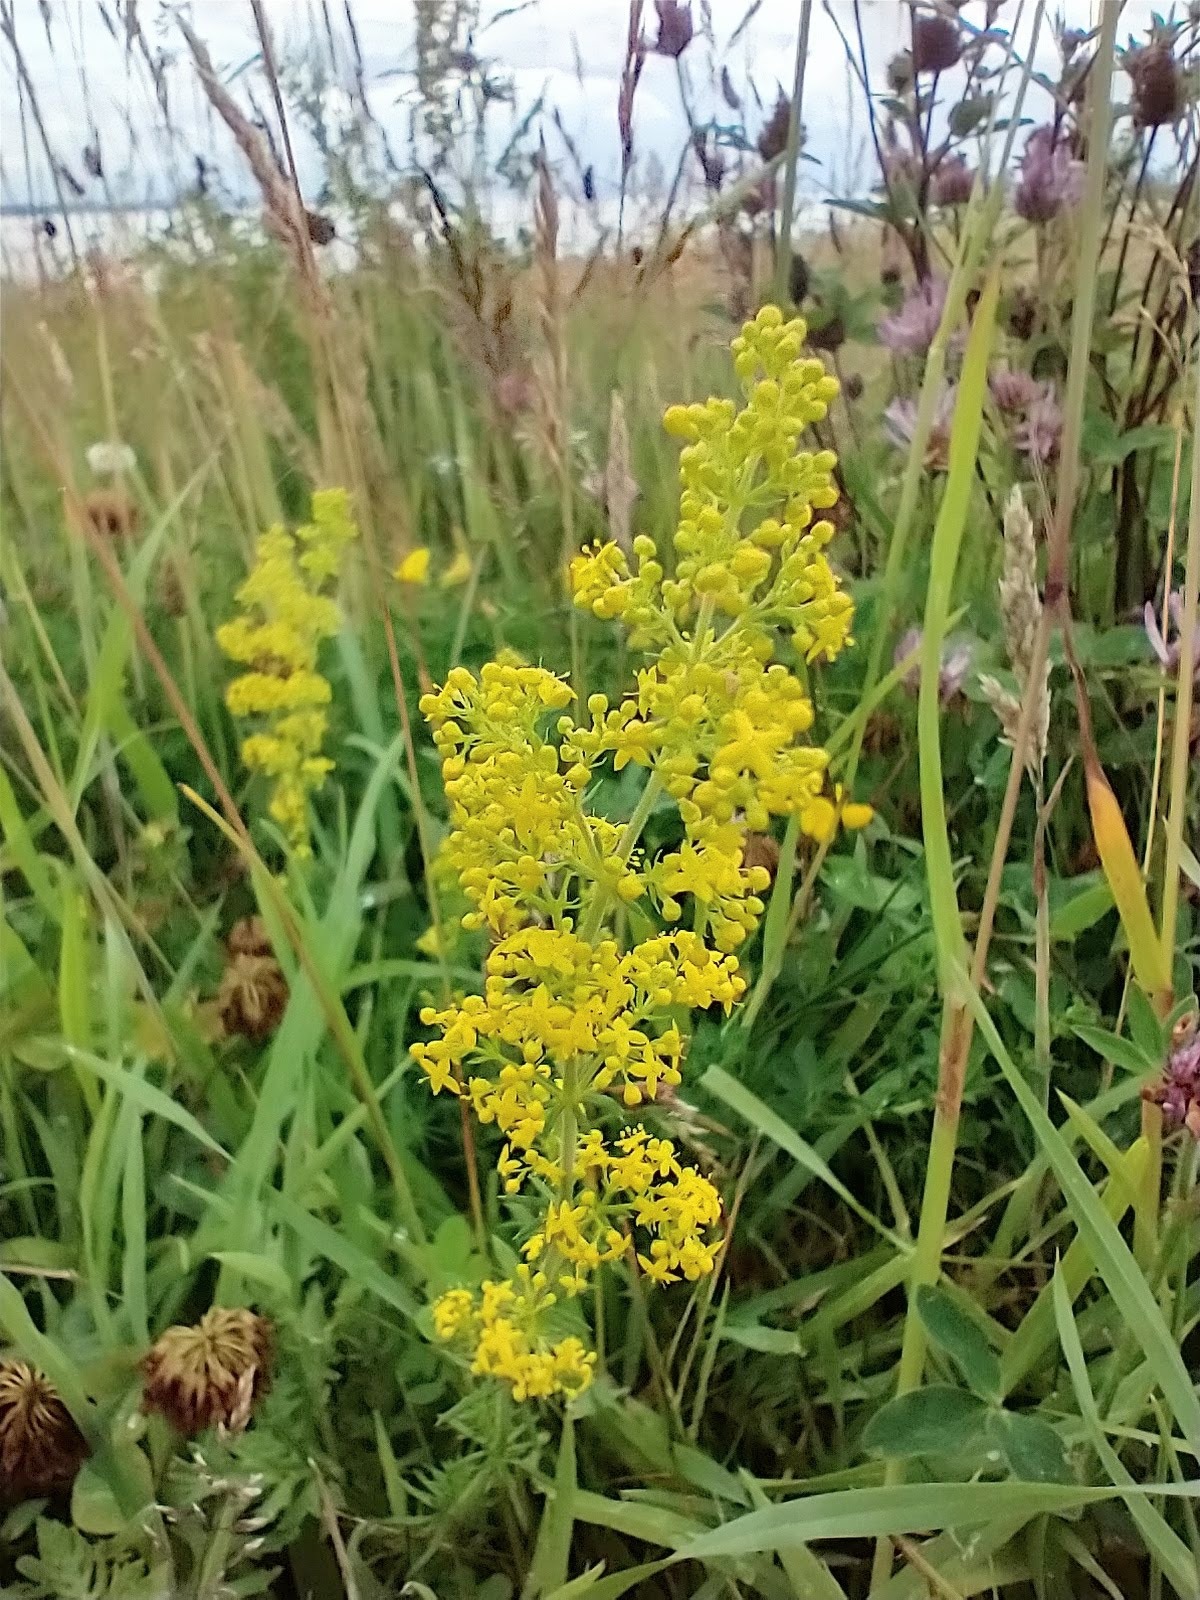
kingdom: Plantae
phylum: Tracheophyta
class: Magnoliopsida
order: Gentianales
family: Rubiaceae
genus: Galium
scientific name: Galium verum
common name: Lady's bedstraw
